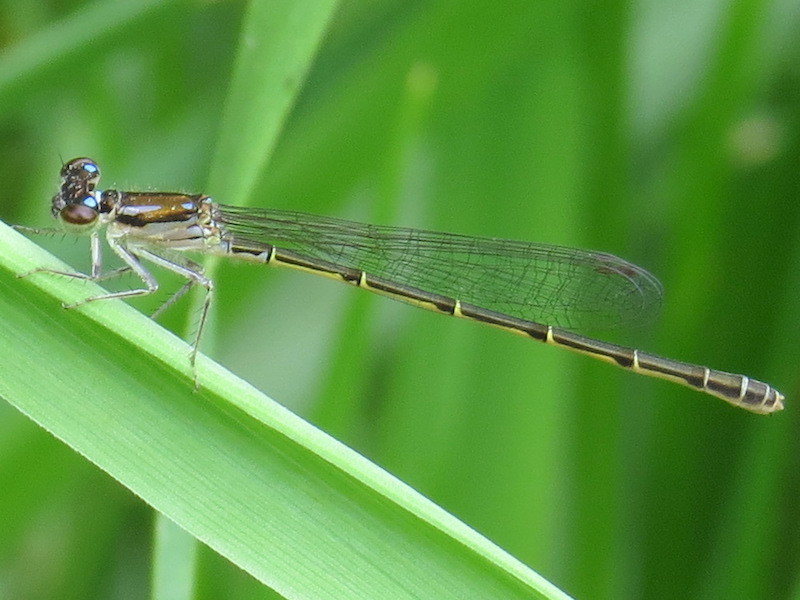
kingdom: Animalia
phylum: Arthropoda
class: Insecta
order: Odonata
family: Coenagrionidae
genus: Ischnura
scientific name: Ischnura posita
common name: Fragile forktail
